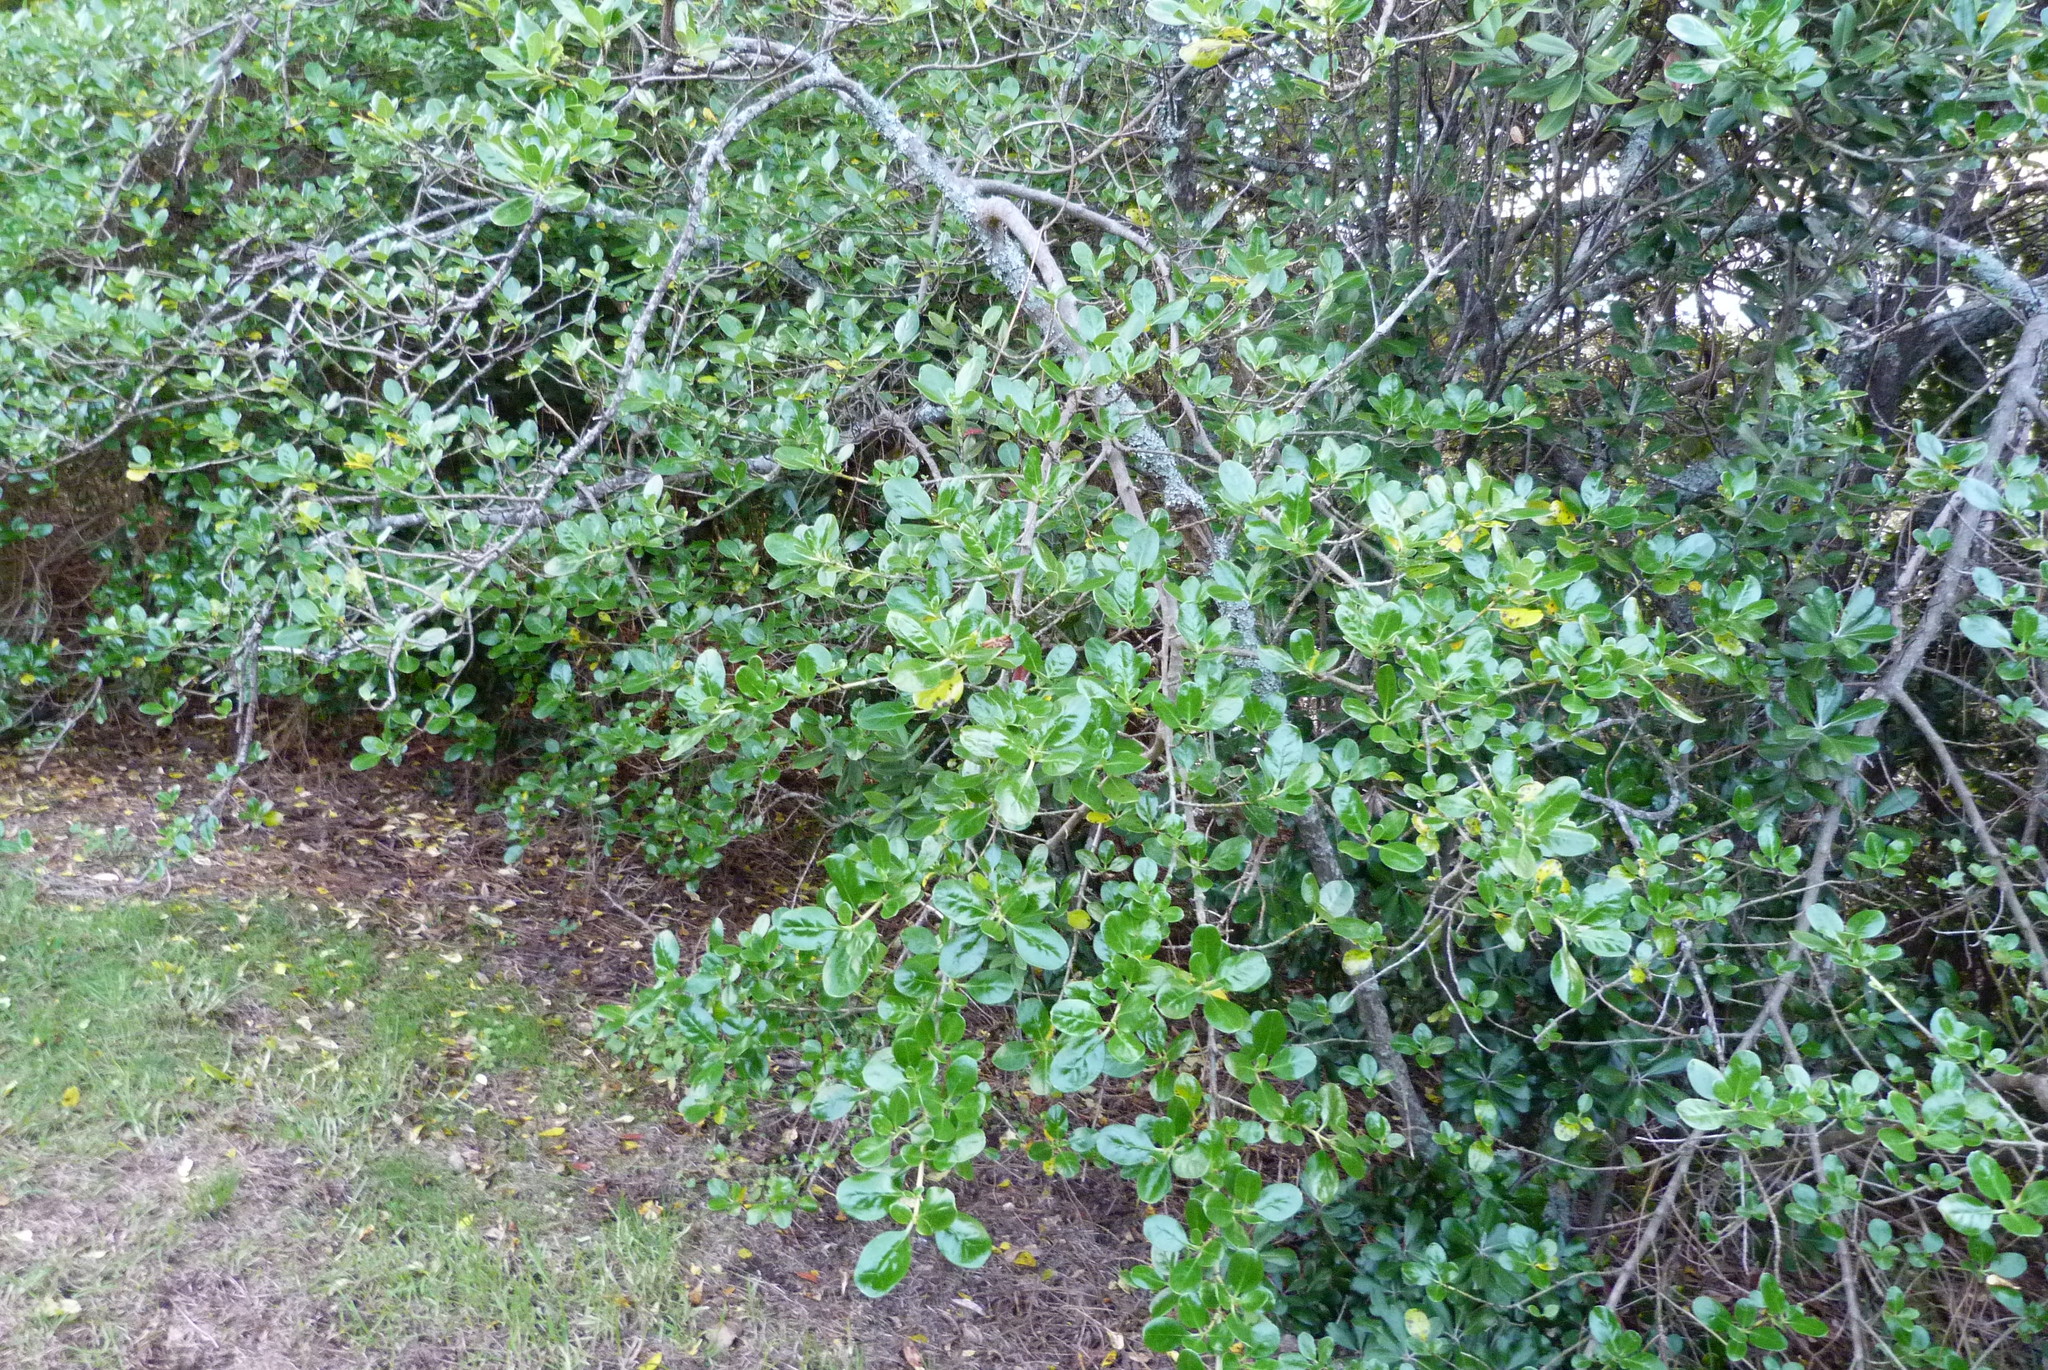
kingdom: Plantae
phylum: Tracheophyta
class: Magnoliopsida
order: Gentianales
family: Rubiaceae
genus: Coprosma
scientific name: Coprosma repens
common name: Tree bedstraw
